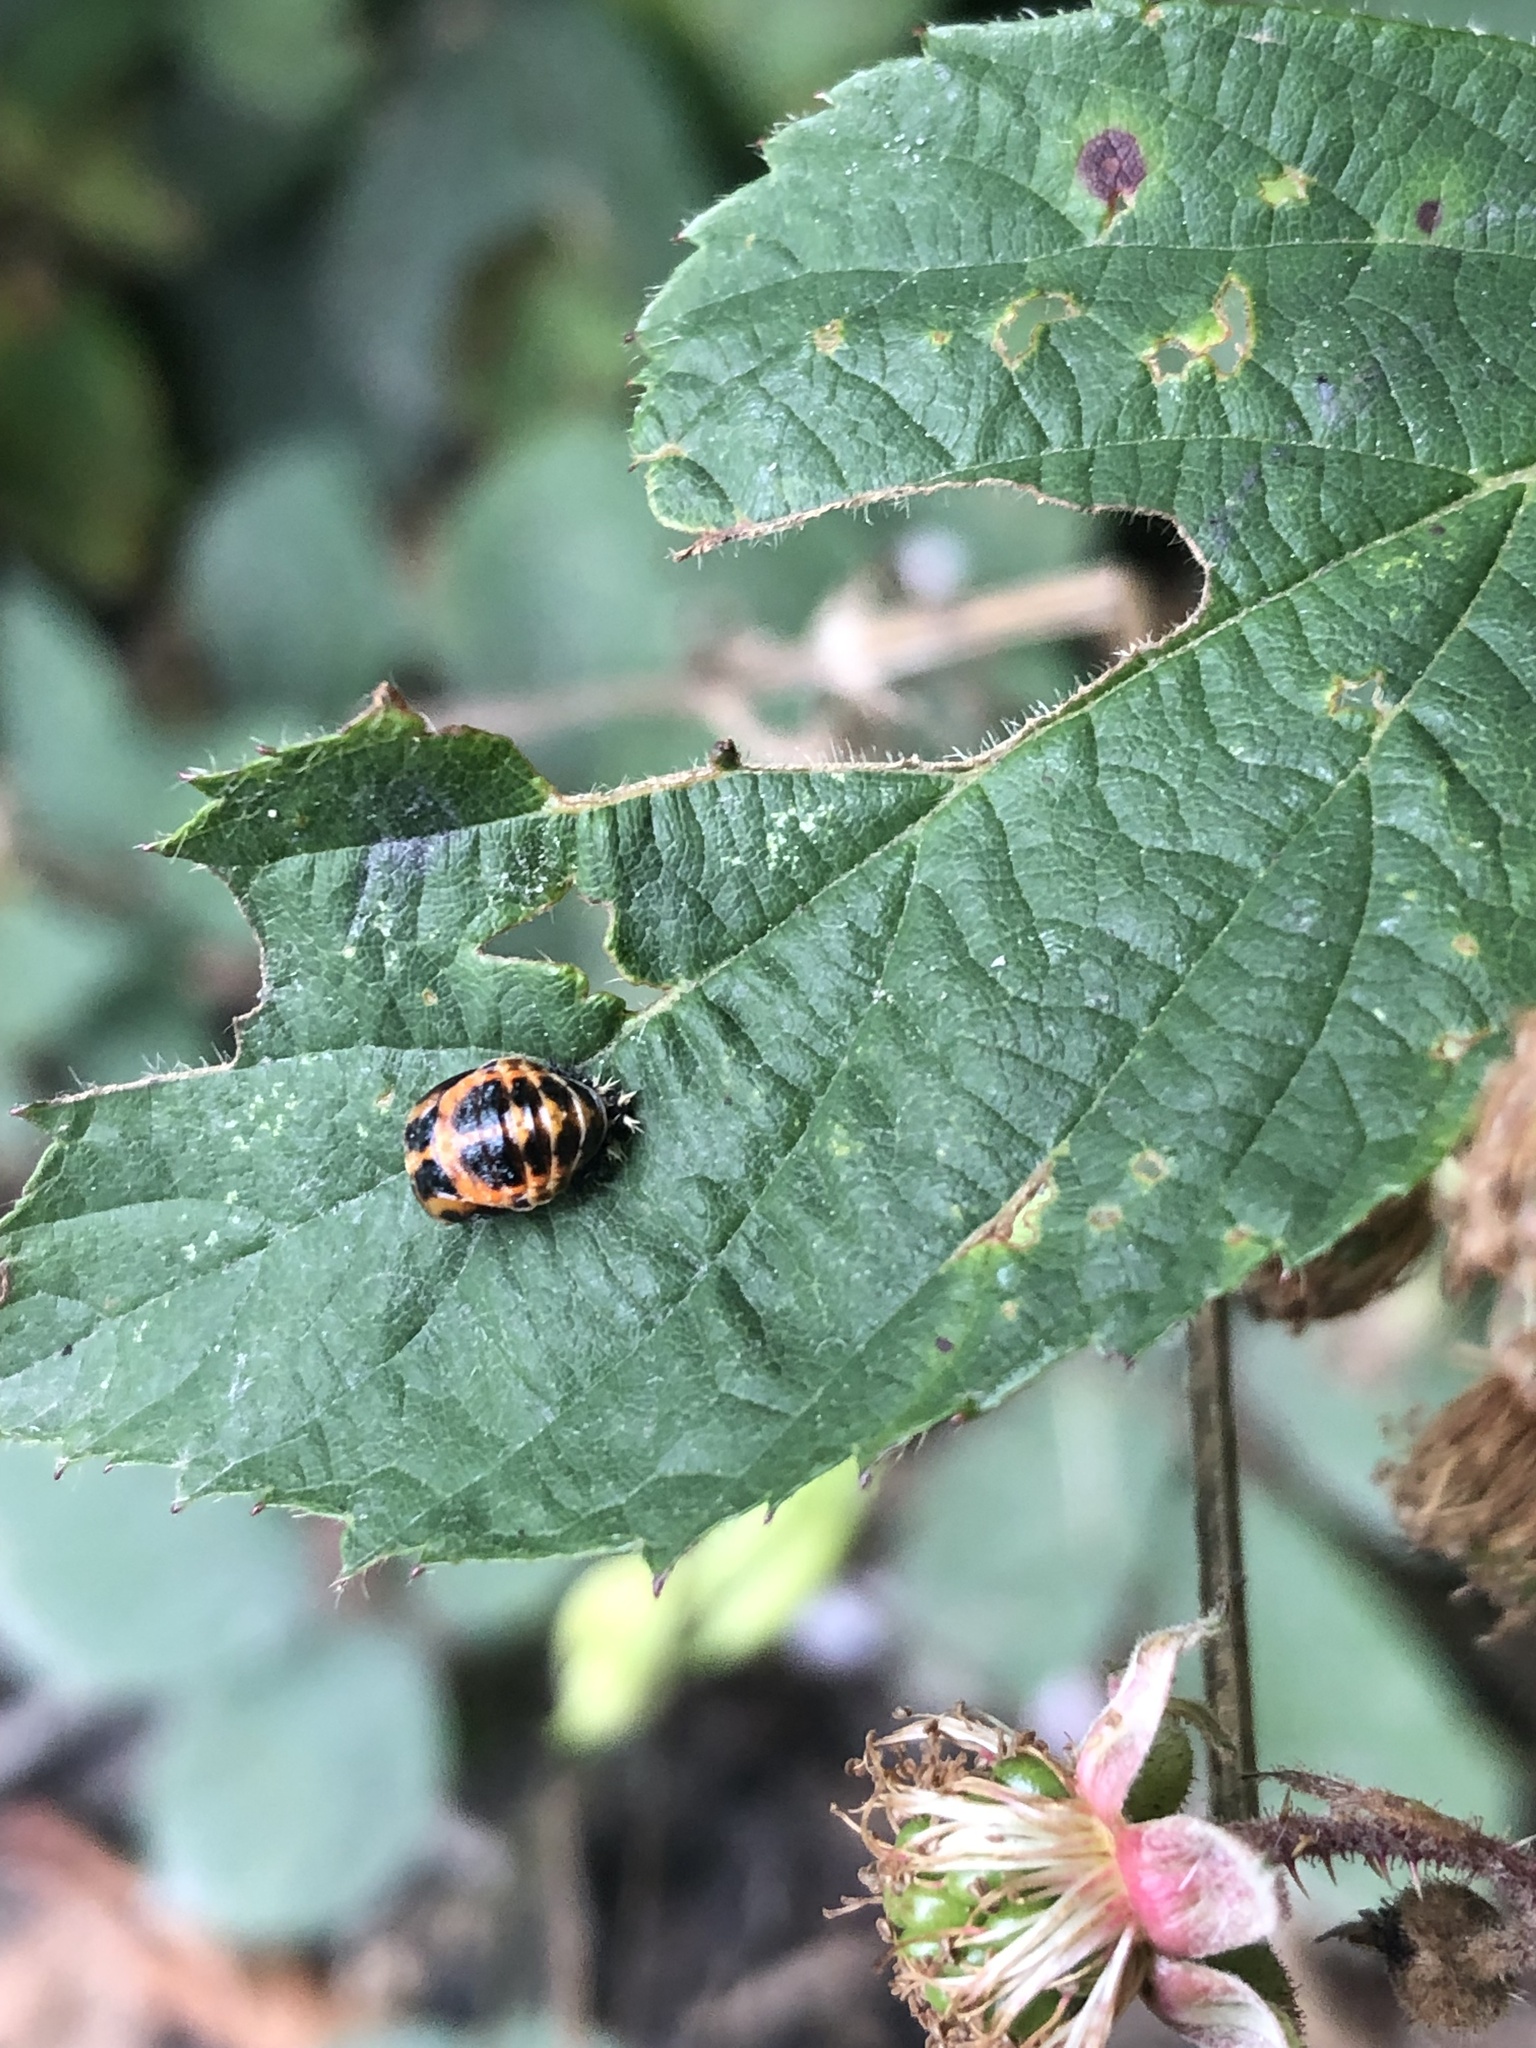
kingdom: Animalia
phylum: Arthropoda
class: Insecta
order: Coleoptera
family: Coccinellidae
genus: Harmonia
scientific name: Harmonia axyridis
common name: Harlequin ladybird
